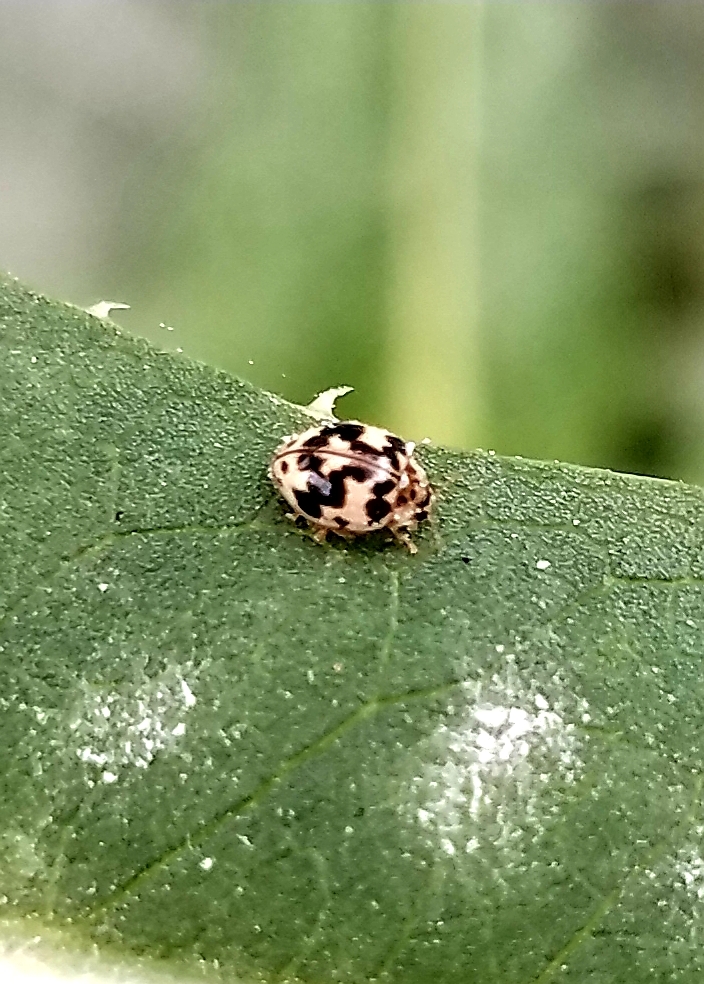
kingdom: Animalia
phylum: Arthropoda
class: Insecta
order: Coleoptera
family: Coccinellidae
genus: Psyllobora
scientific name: Psyllobora borealis
